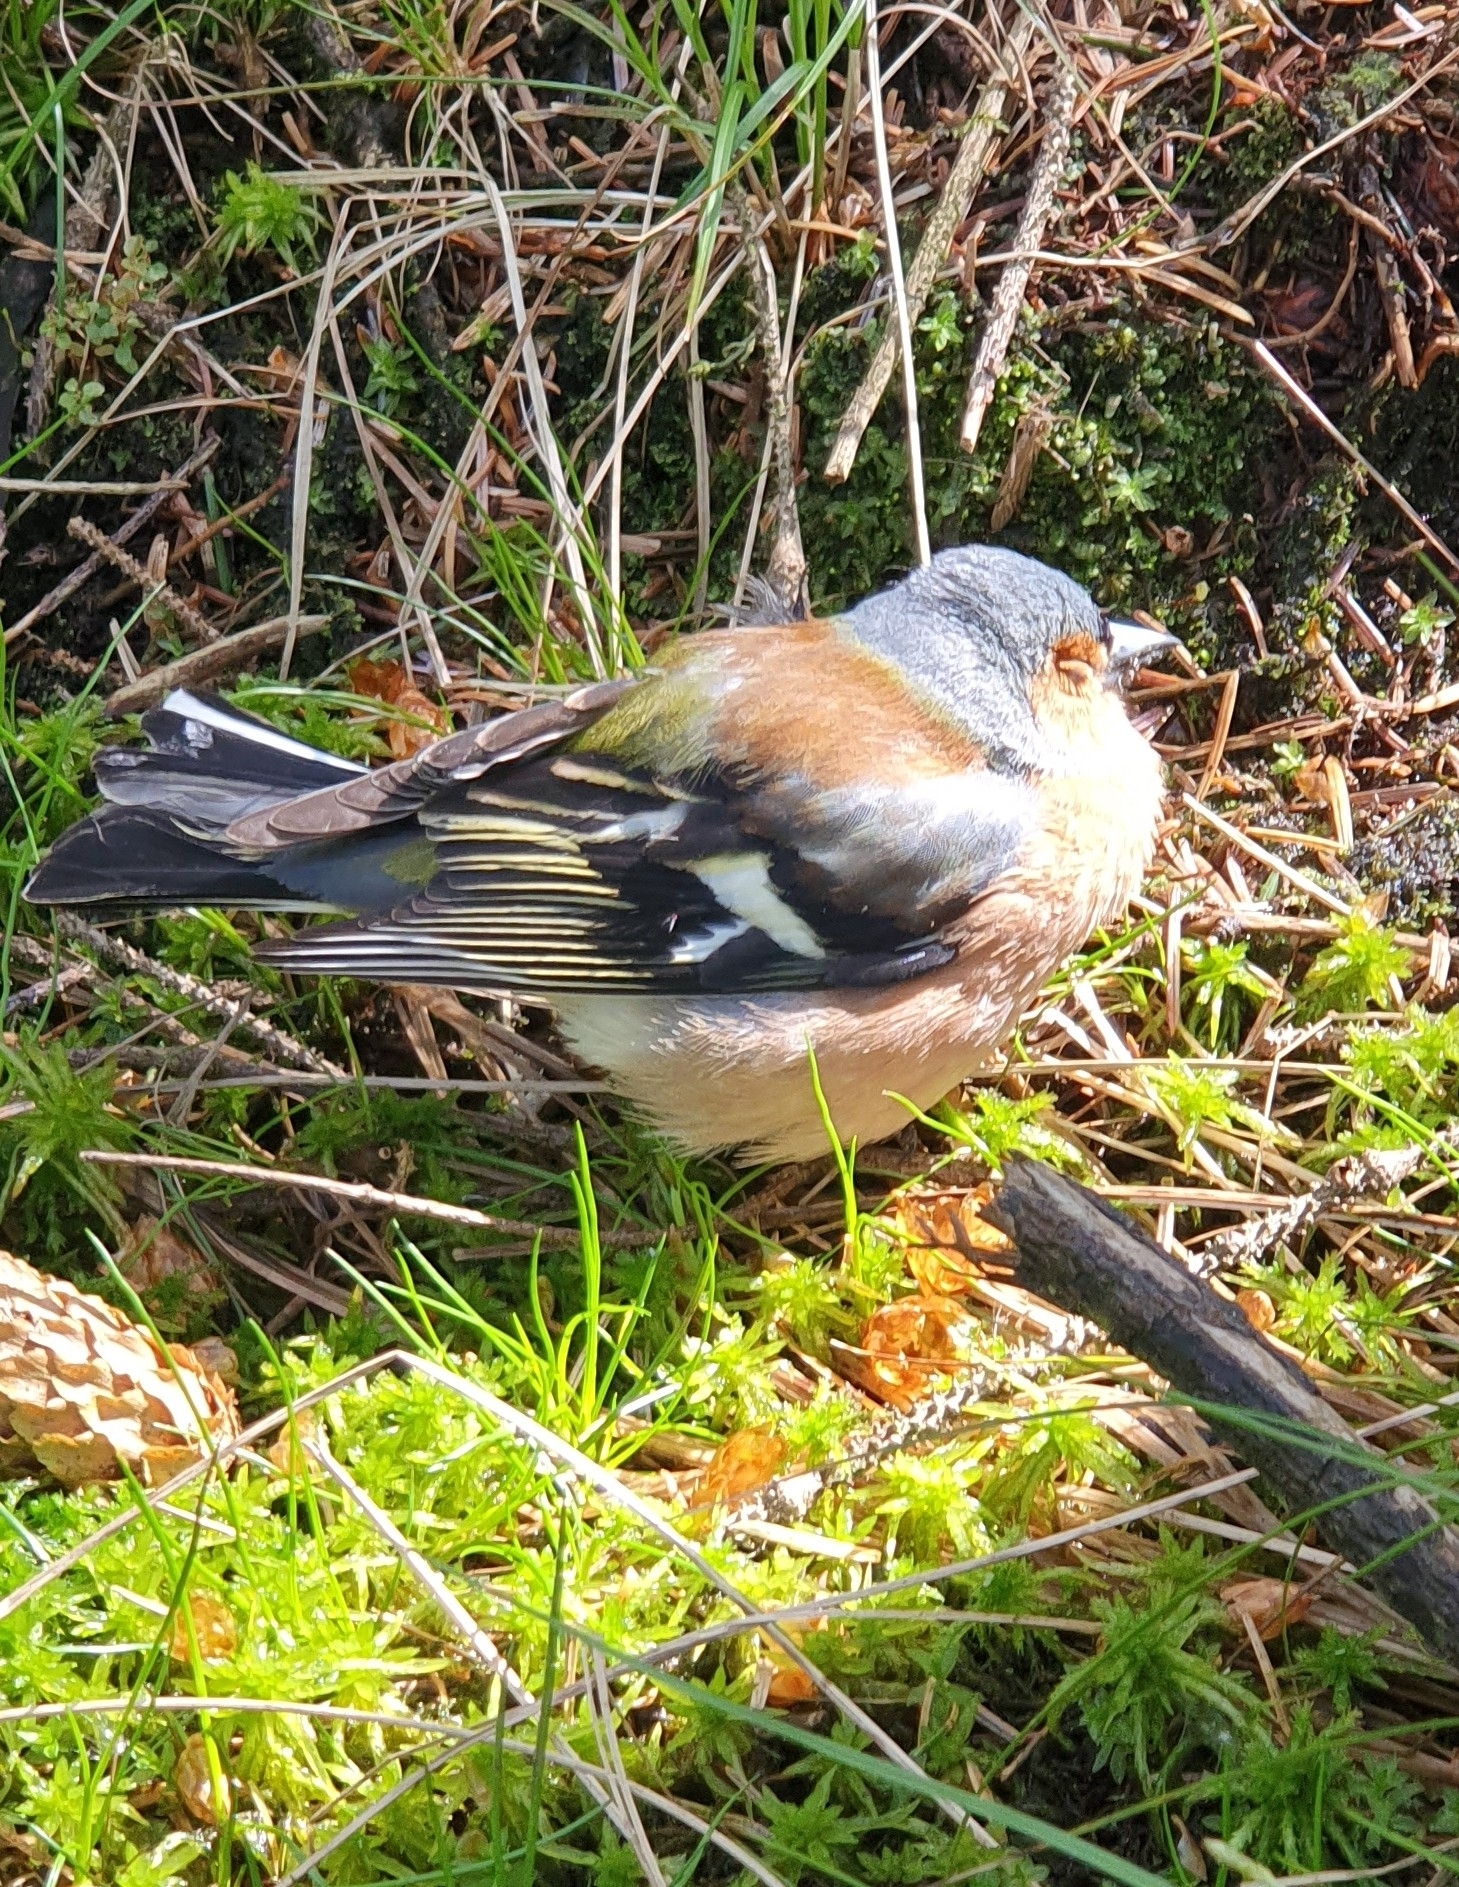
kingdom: Animalia
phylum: Chordata
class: Aves
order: Passeriformes
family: Fringillidae
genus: Fringilla
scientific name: Fringilla coelebs
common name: Common chaffinch
